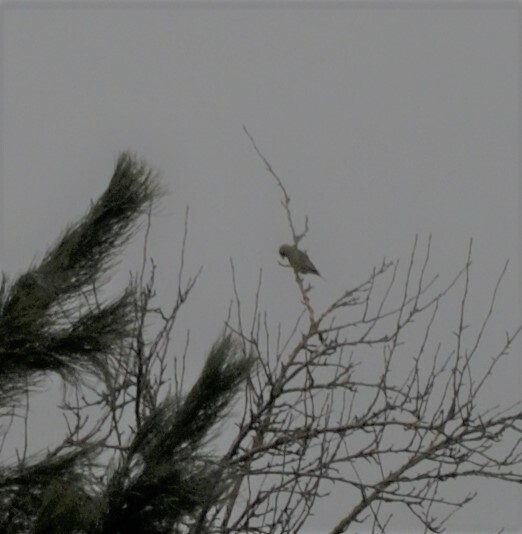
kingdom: Plantae
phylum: Tracheophyta
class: Liliopsida
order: Poales
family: Poaceae
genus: Chloris
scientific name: Chloris chloris
